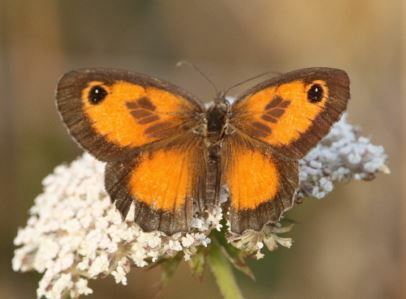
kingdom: Animalia
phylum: Arthropoda
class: Insecta
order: Lepidoptera
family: Nymphalidae
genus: Pyronia
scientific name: Pyronia cecilia
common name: Southern gatekeeper
